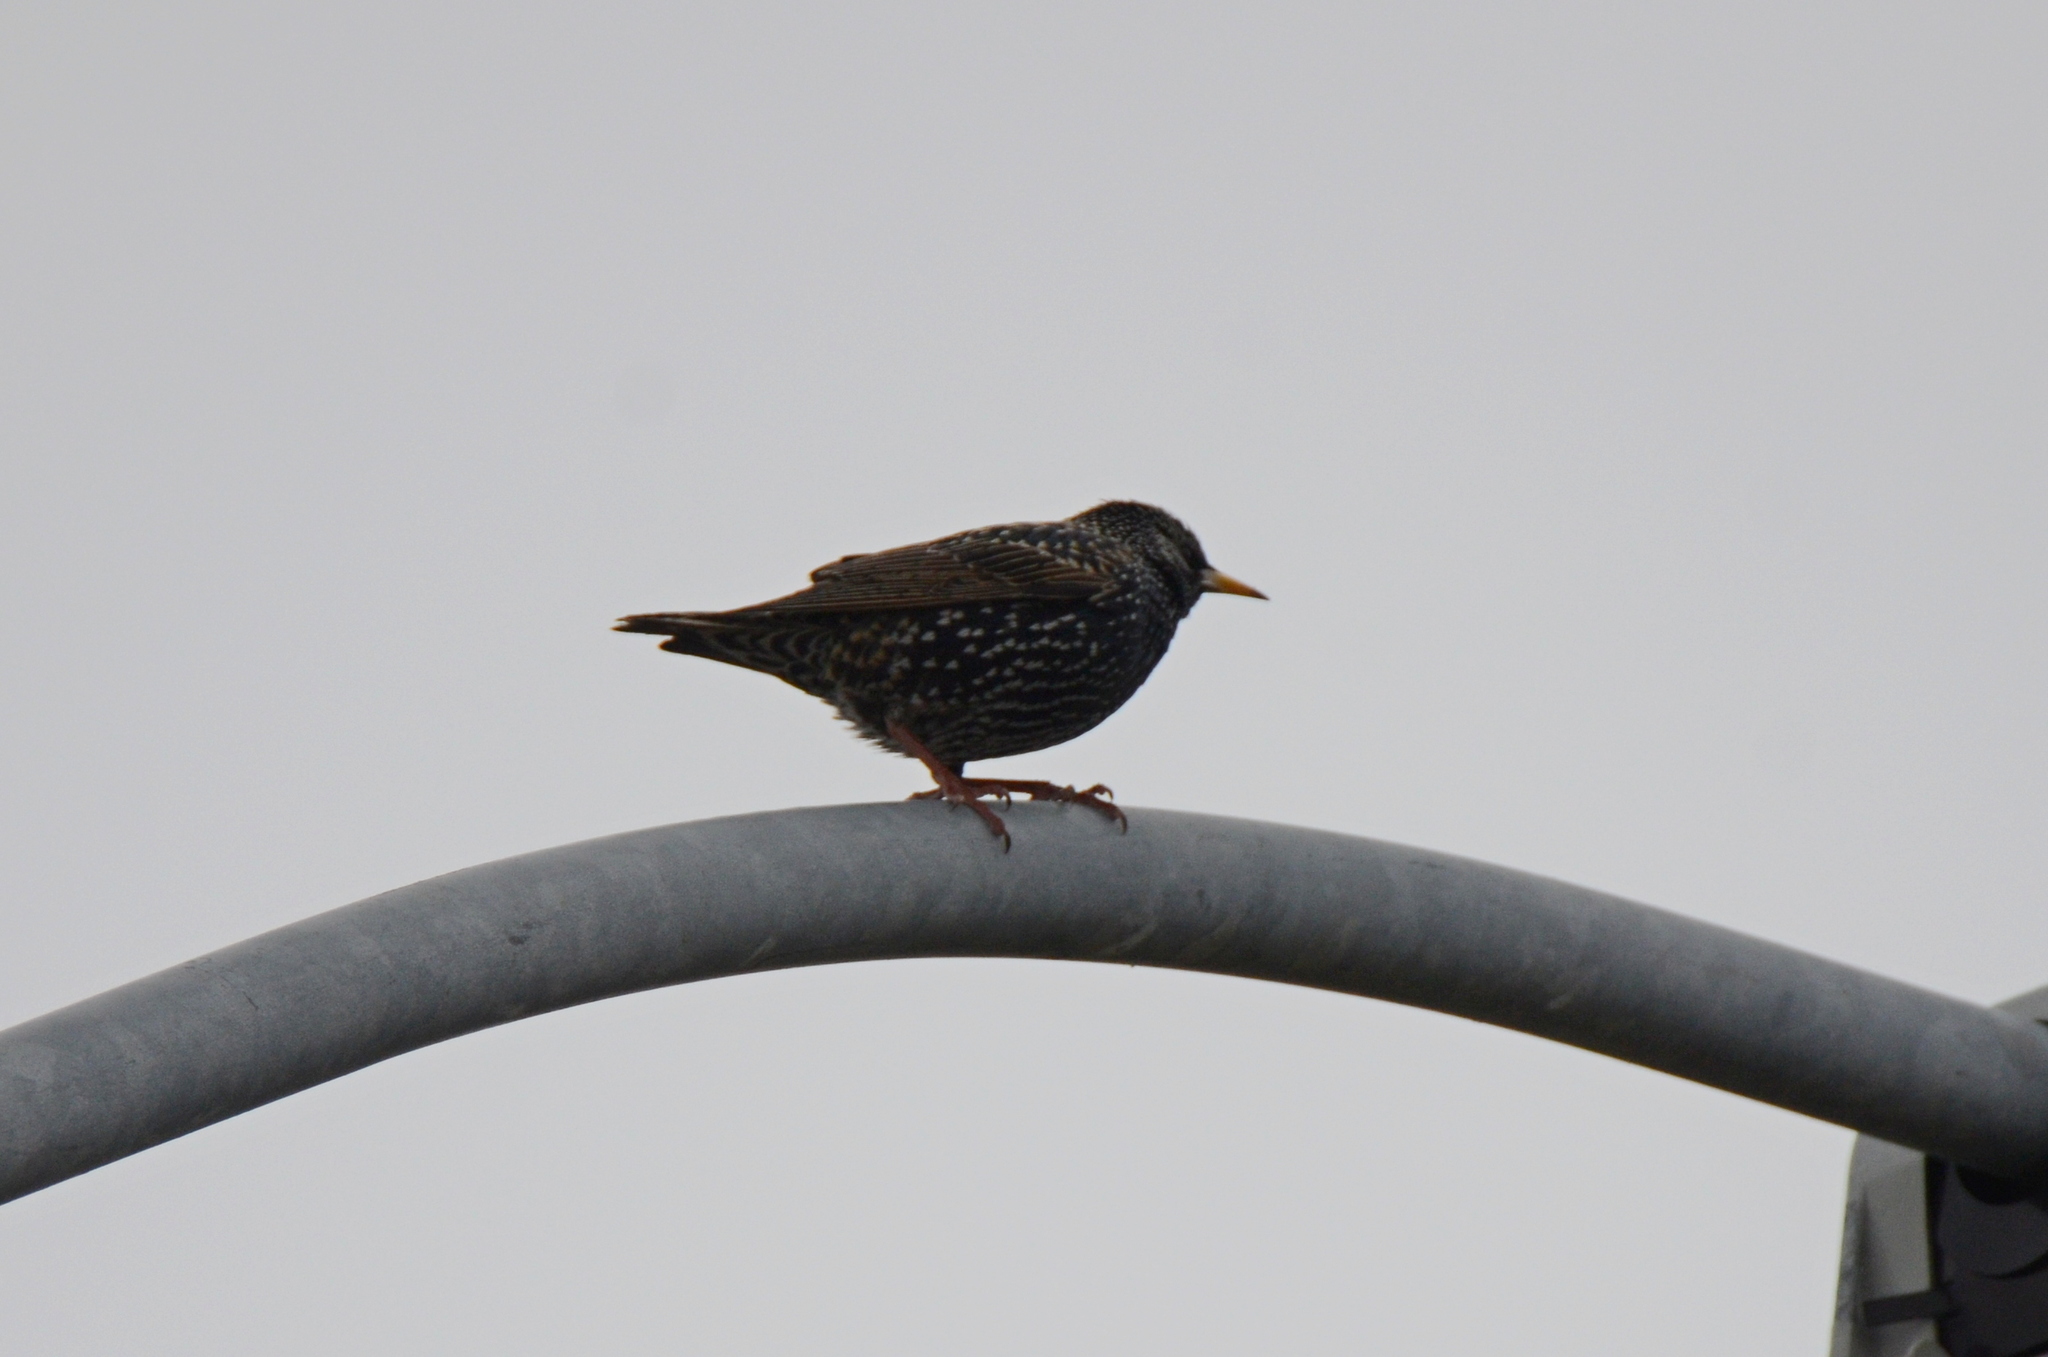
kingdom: Animalia
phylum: Chordata
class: Aves
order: Passeriformes
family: Sturnidae
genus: Sturnus
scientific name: Sturnus vulgaris
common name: Common starling
